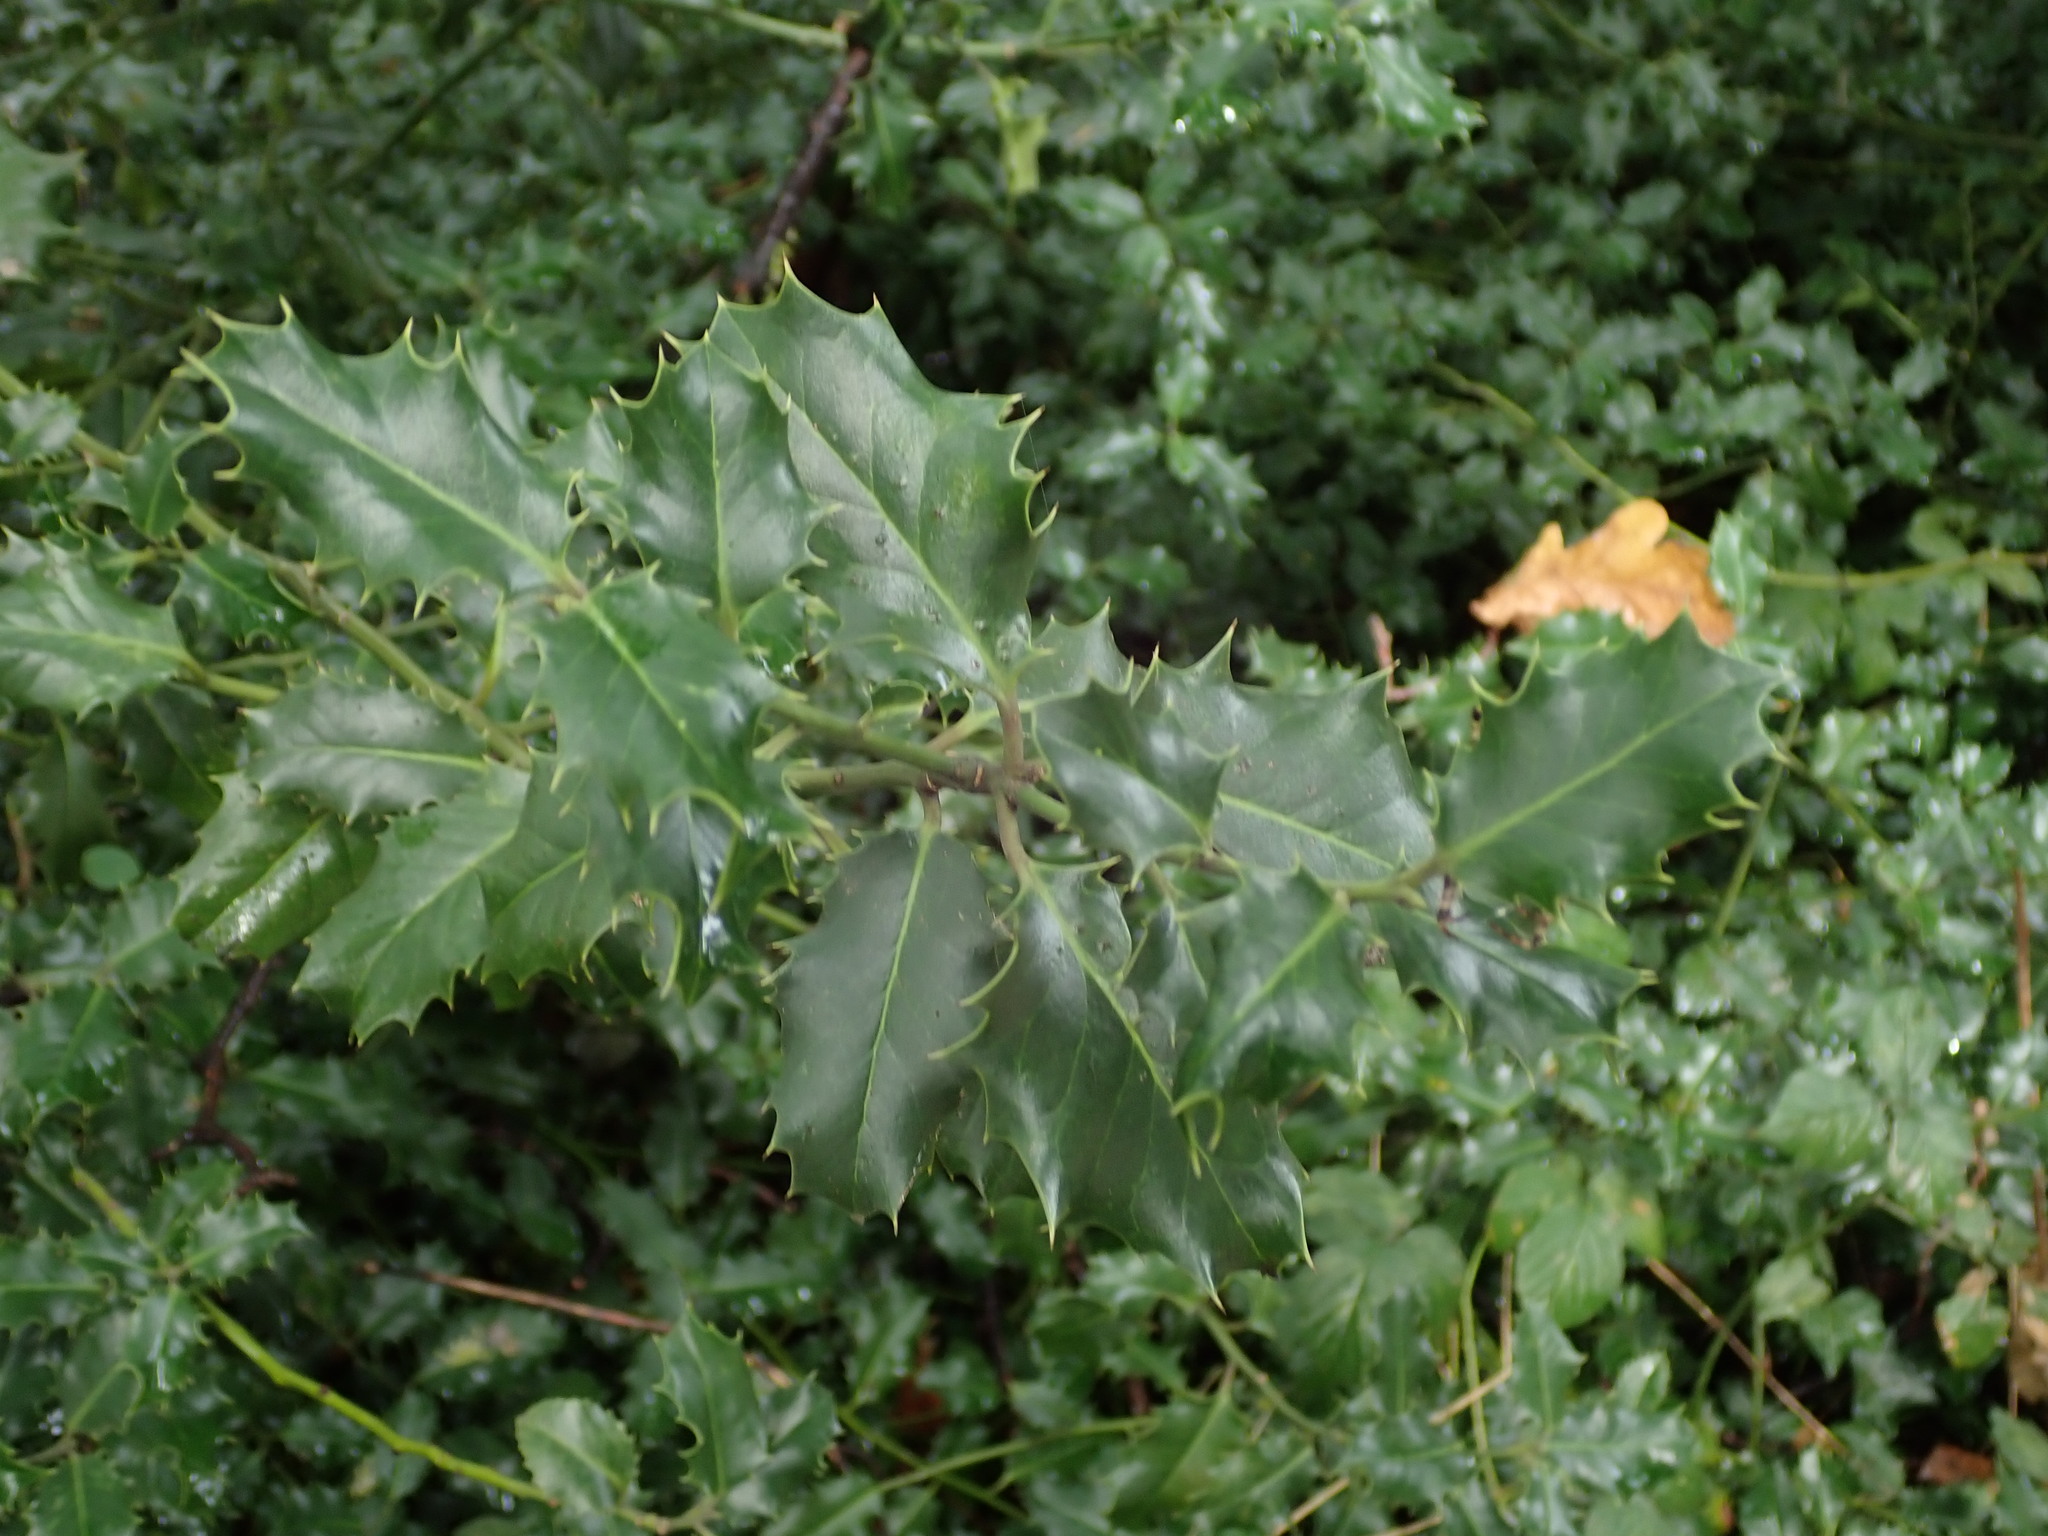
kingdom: Plantae
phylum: Tracheophyta
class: Magnoliopsida
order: Aquifoliales
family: Aquifoliaceae
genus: Ilex
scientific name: Ilex aquifolium
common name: English holly
